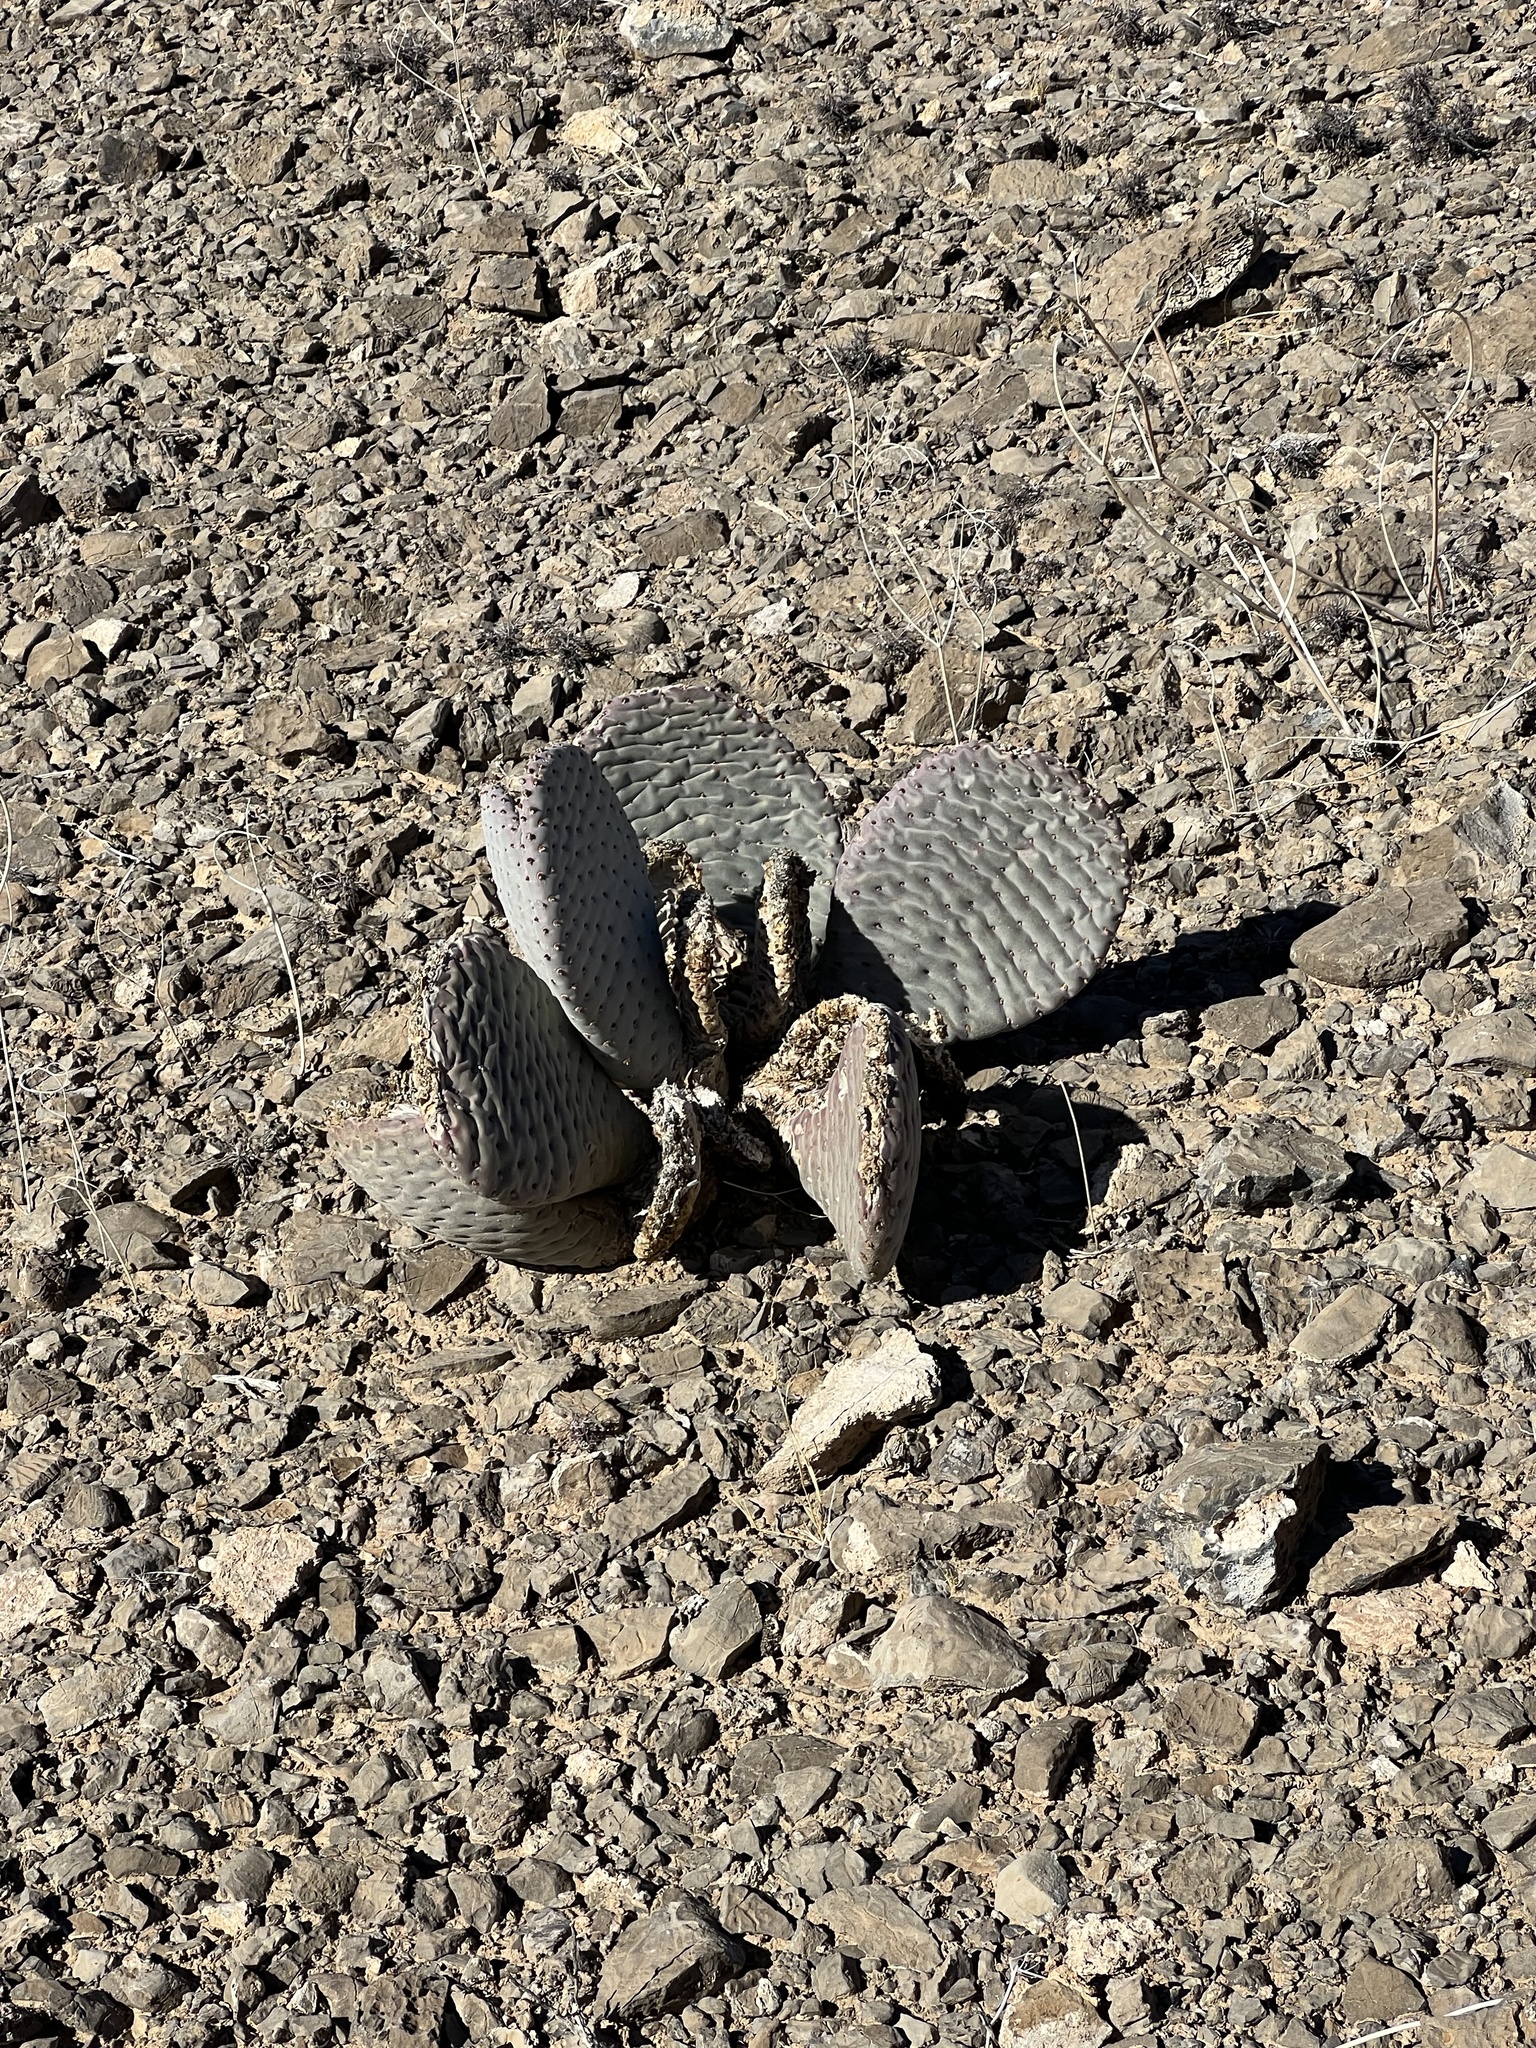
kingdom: Plantae
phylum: Tracheophyta
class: Magnoliopsida
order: Caryophyllales
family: Cactaceae
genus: Opuntia
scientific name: Opuntia basilaris
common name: Beavertail prickly-pear
